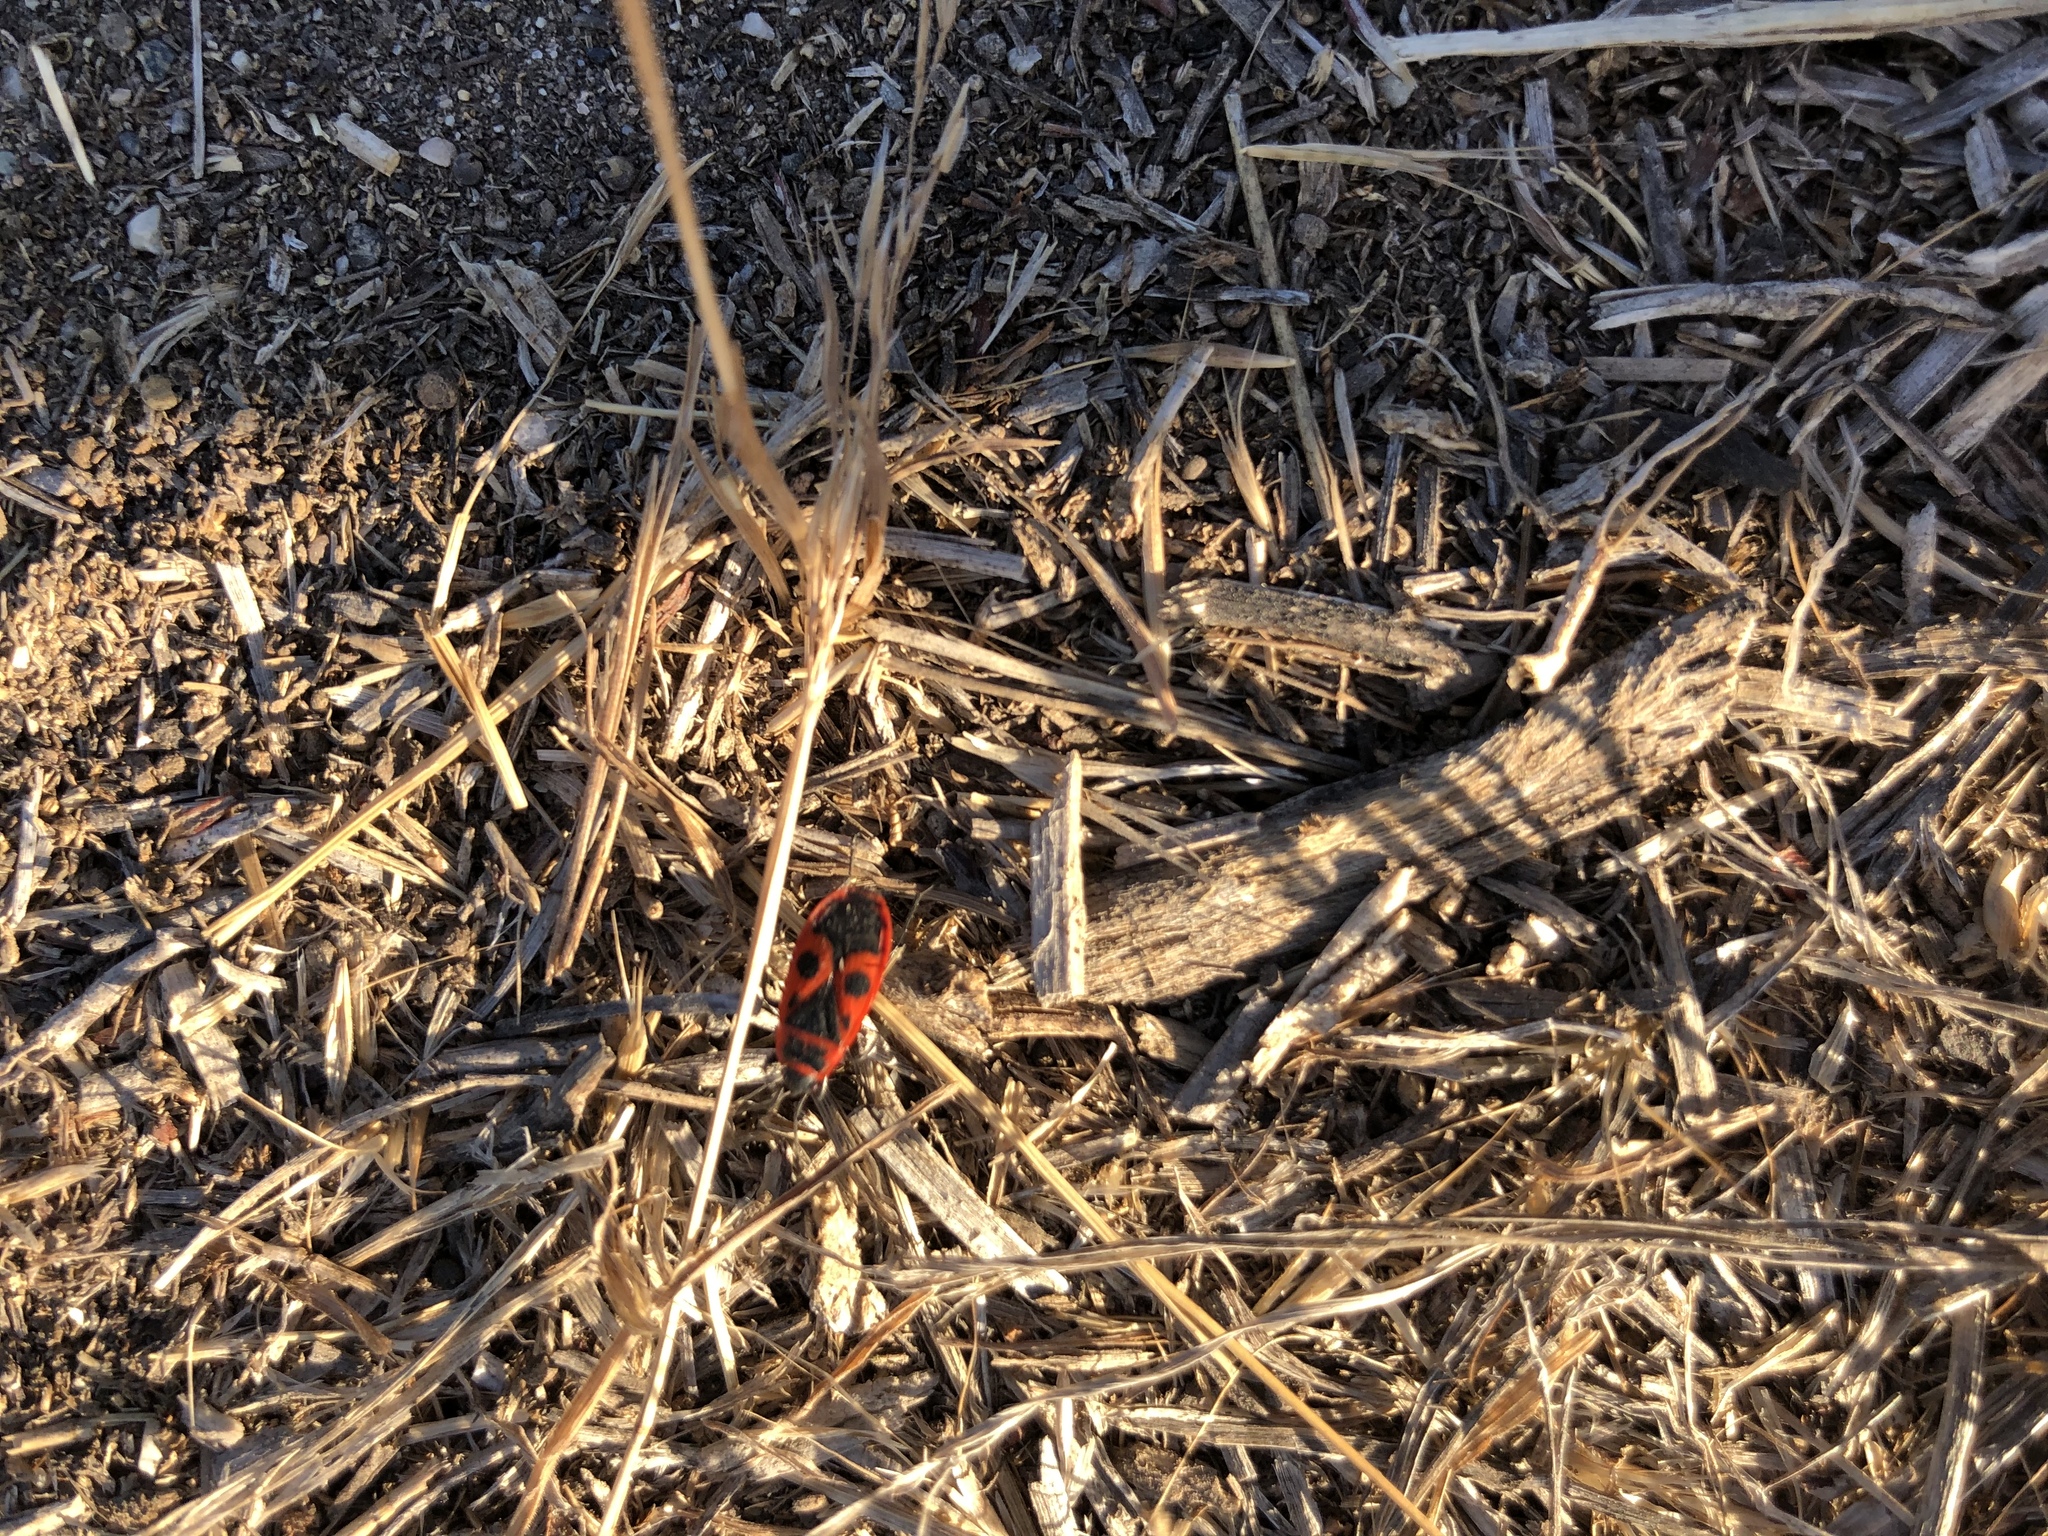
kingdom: Animalia
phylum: Arthropoda
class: Insecta
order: Hemiptera
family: Pyrrhocoridae
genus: Pyrrhocoris
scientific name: Pyrrhocoris apterus
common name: Firebug
